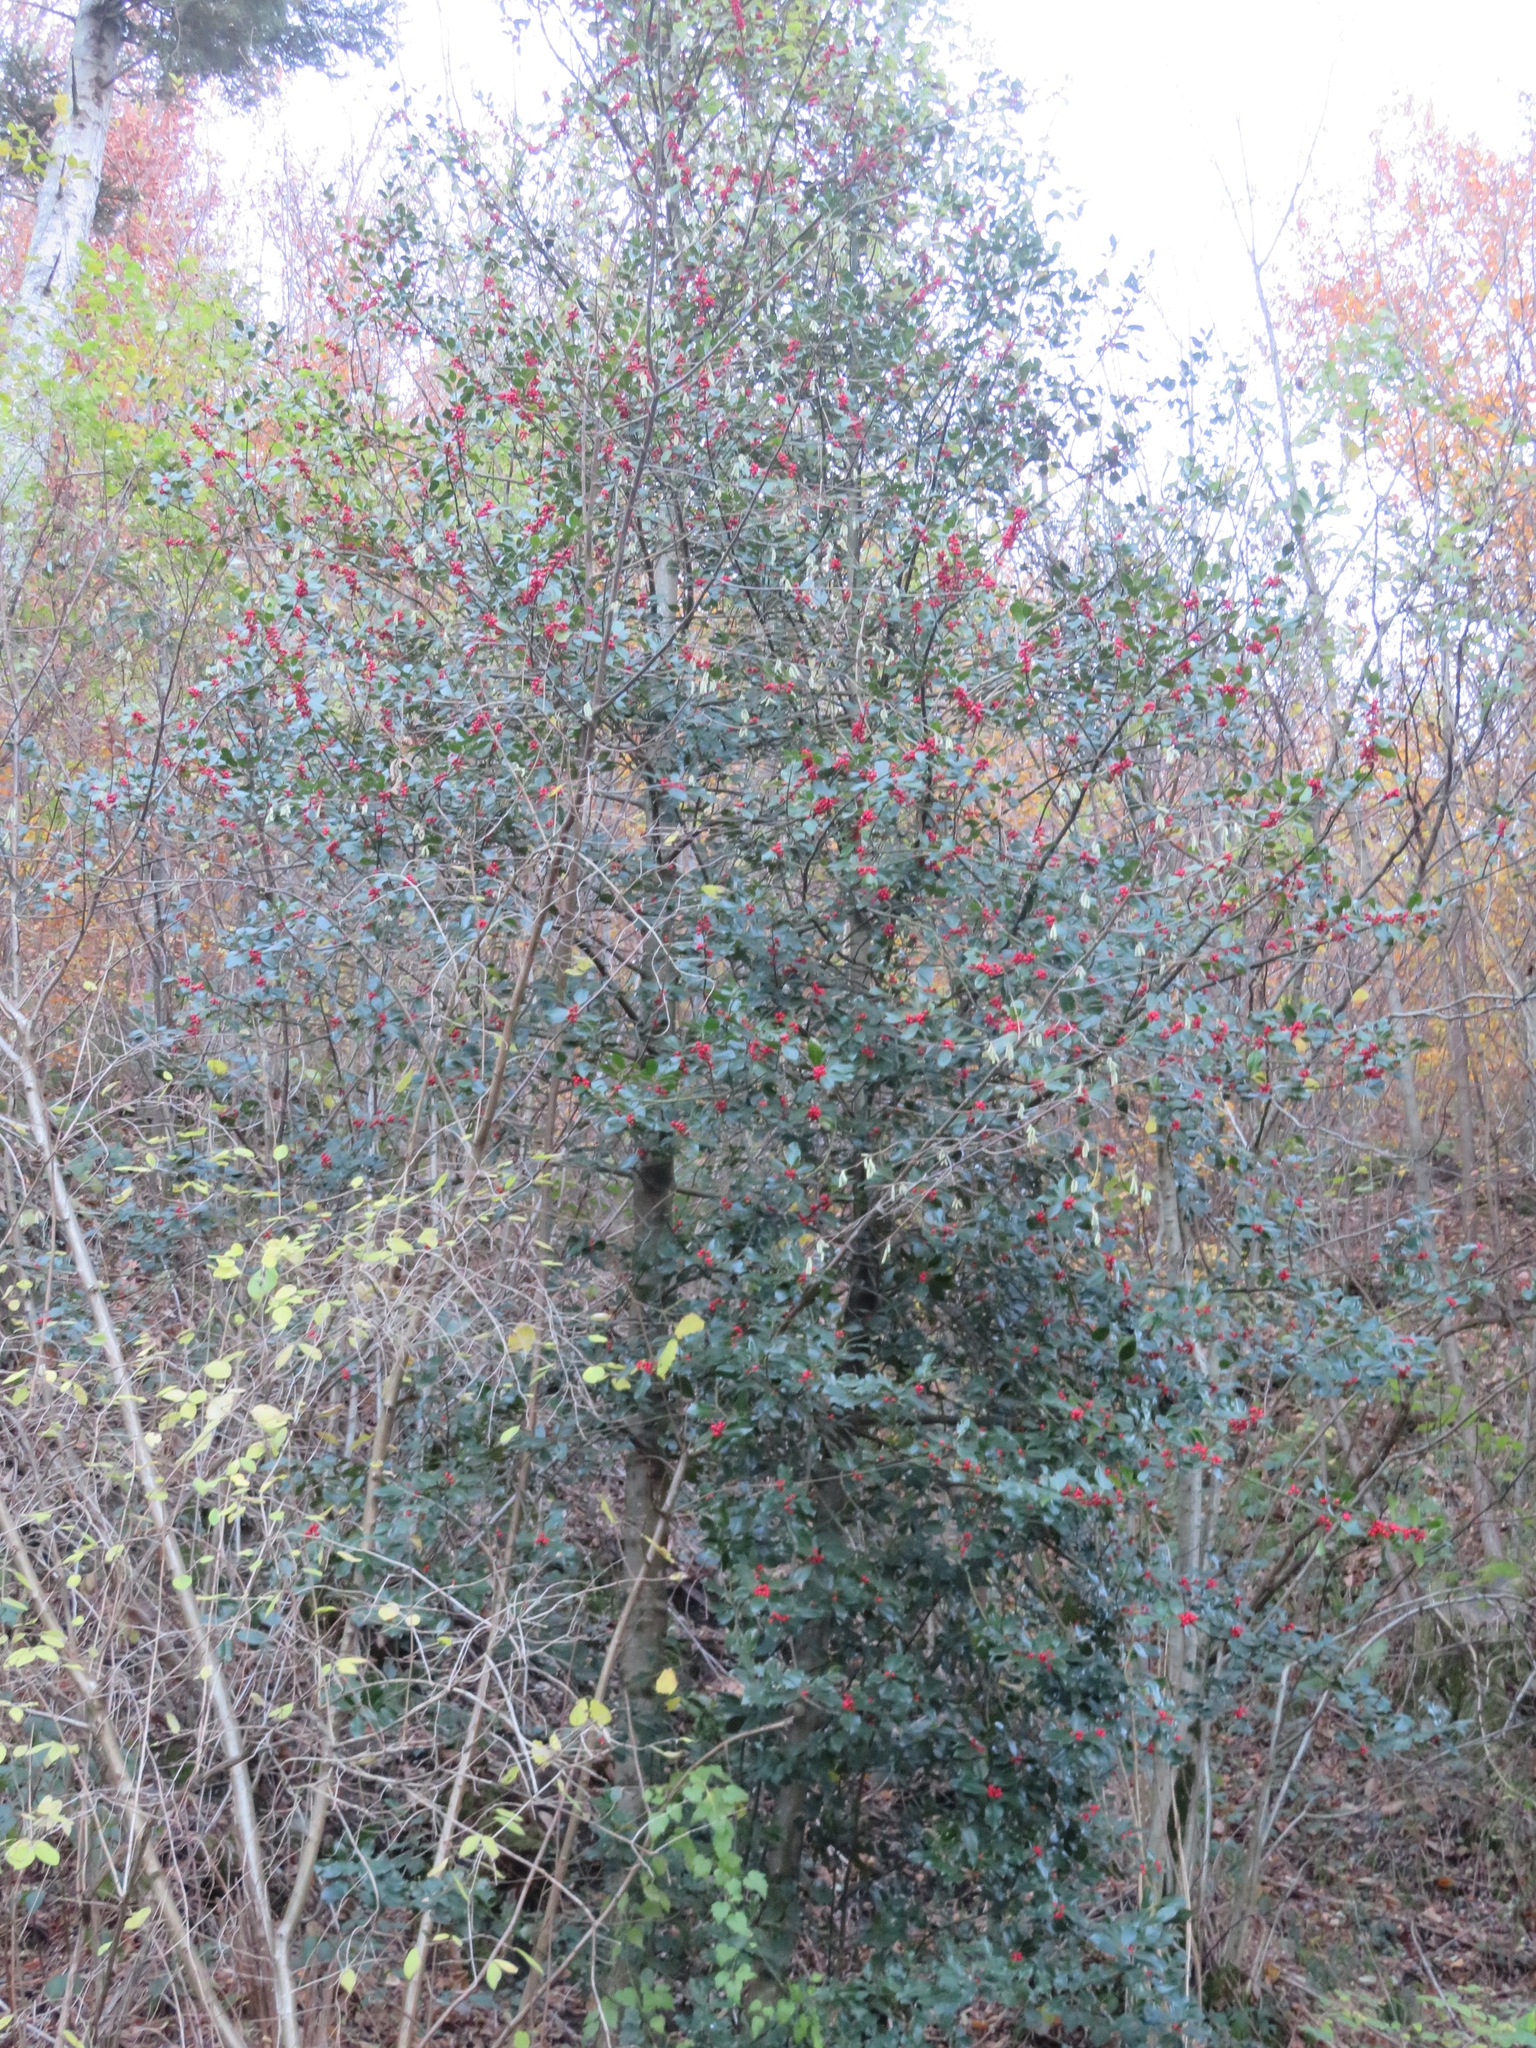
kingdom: Plantae
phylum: Tracheophyta
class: Magnoliopsida
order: Aquifoliales
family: Aquifoliaceae
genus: Ilex
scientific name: Ilex aquifolium
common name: English holly
